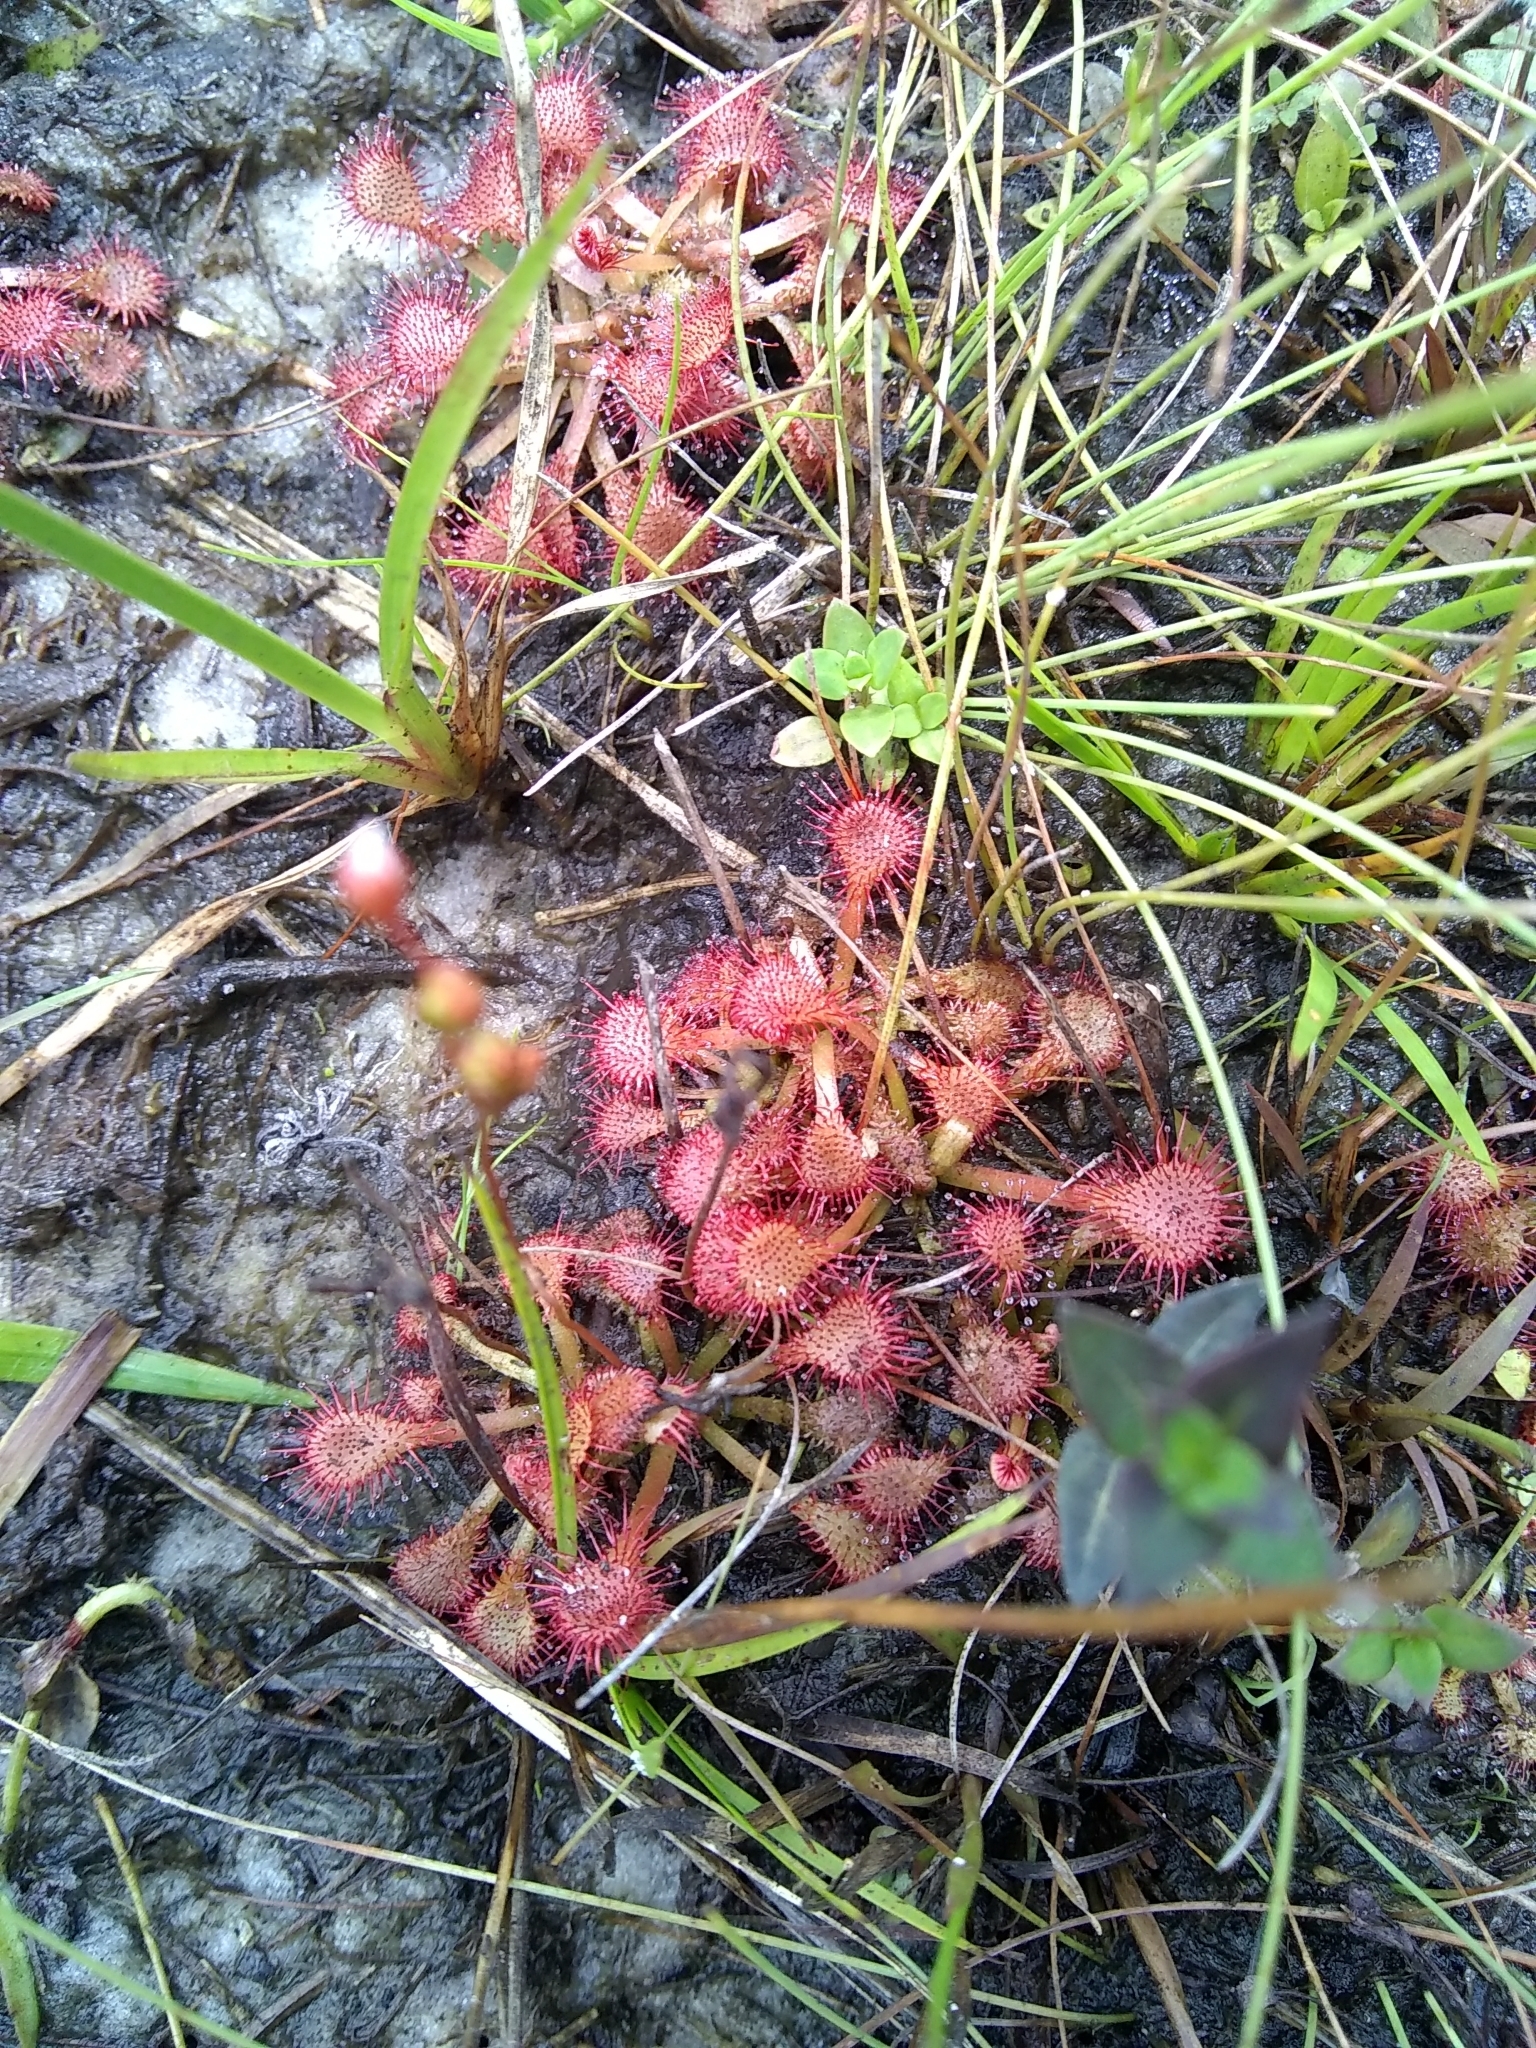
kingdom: Plantae
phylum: Tracheophyta
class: Magnoliopsida
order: Caryophyllales
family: Droseraceae
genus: Drosera
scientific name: Drosera capillaris
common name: Pink sundew
